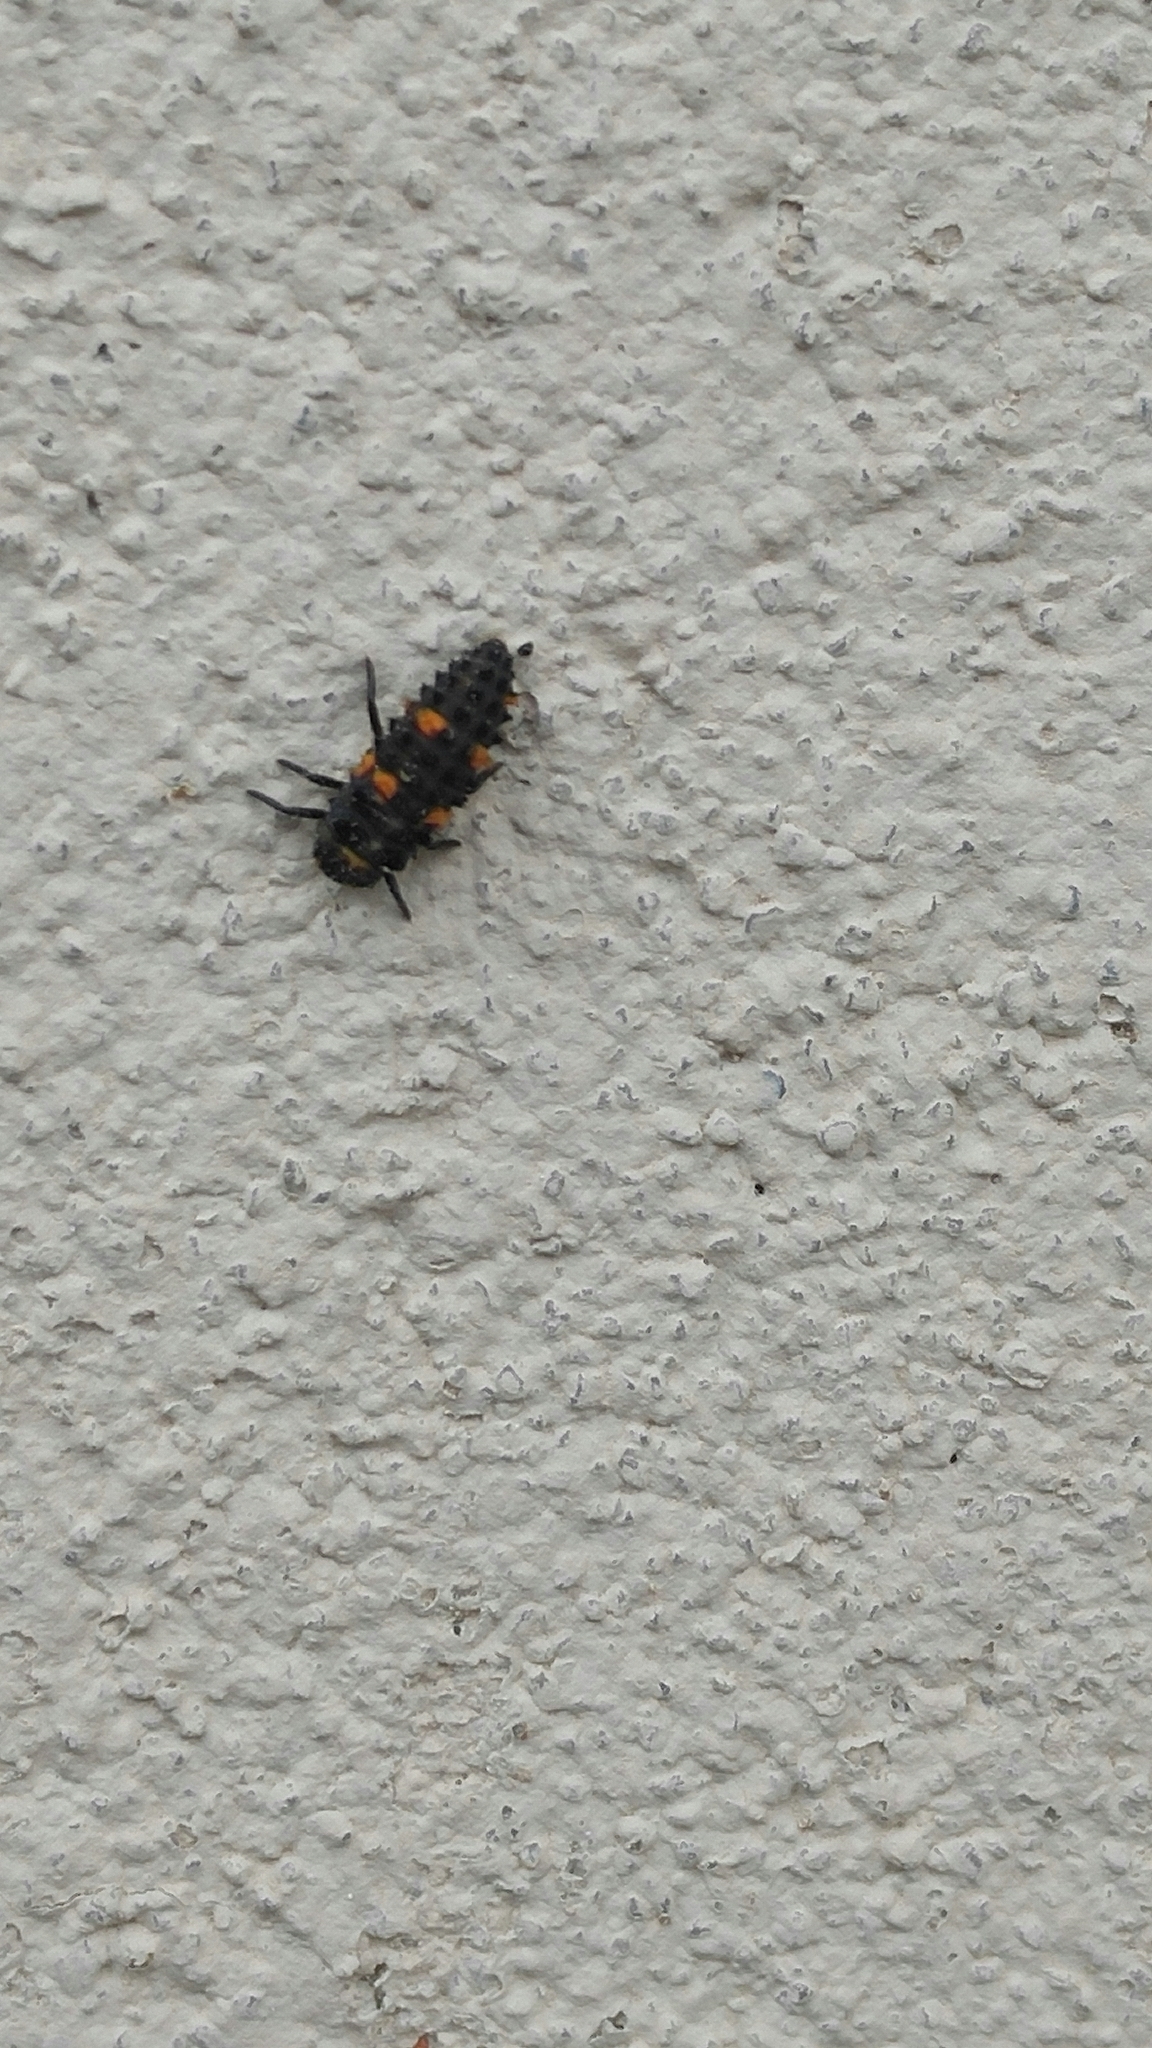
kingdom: Animalia
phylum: Arthropoda
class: Insecta
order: Coleoptera
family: Coccinellidae
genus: Coccinella
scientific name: Coccinella septempunctata
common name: Sevenspotted lady beetle
